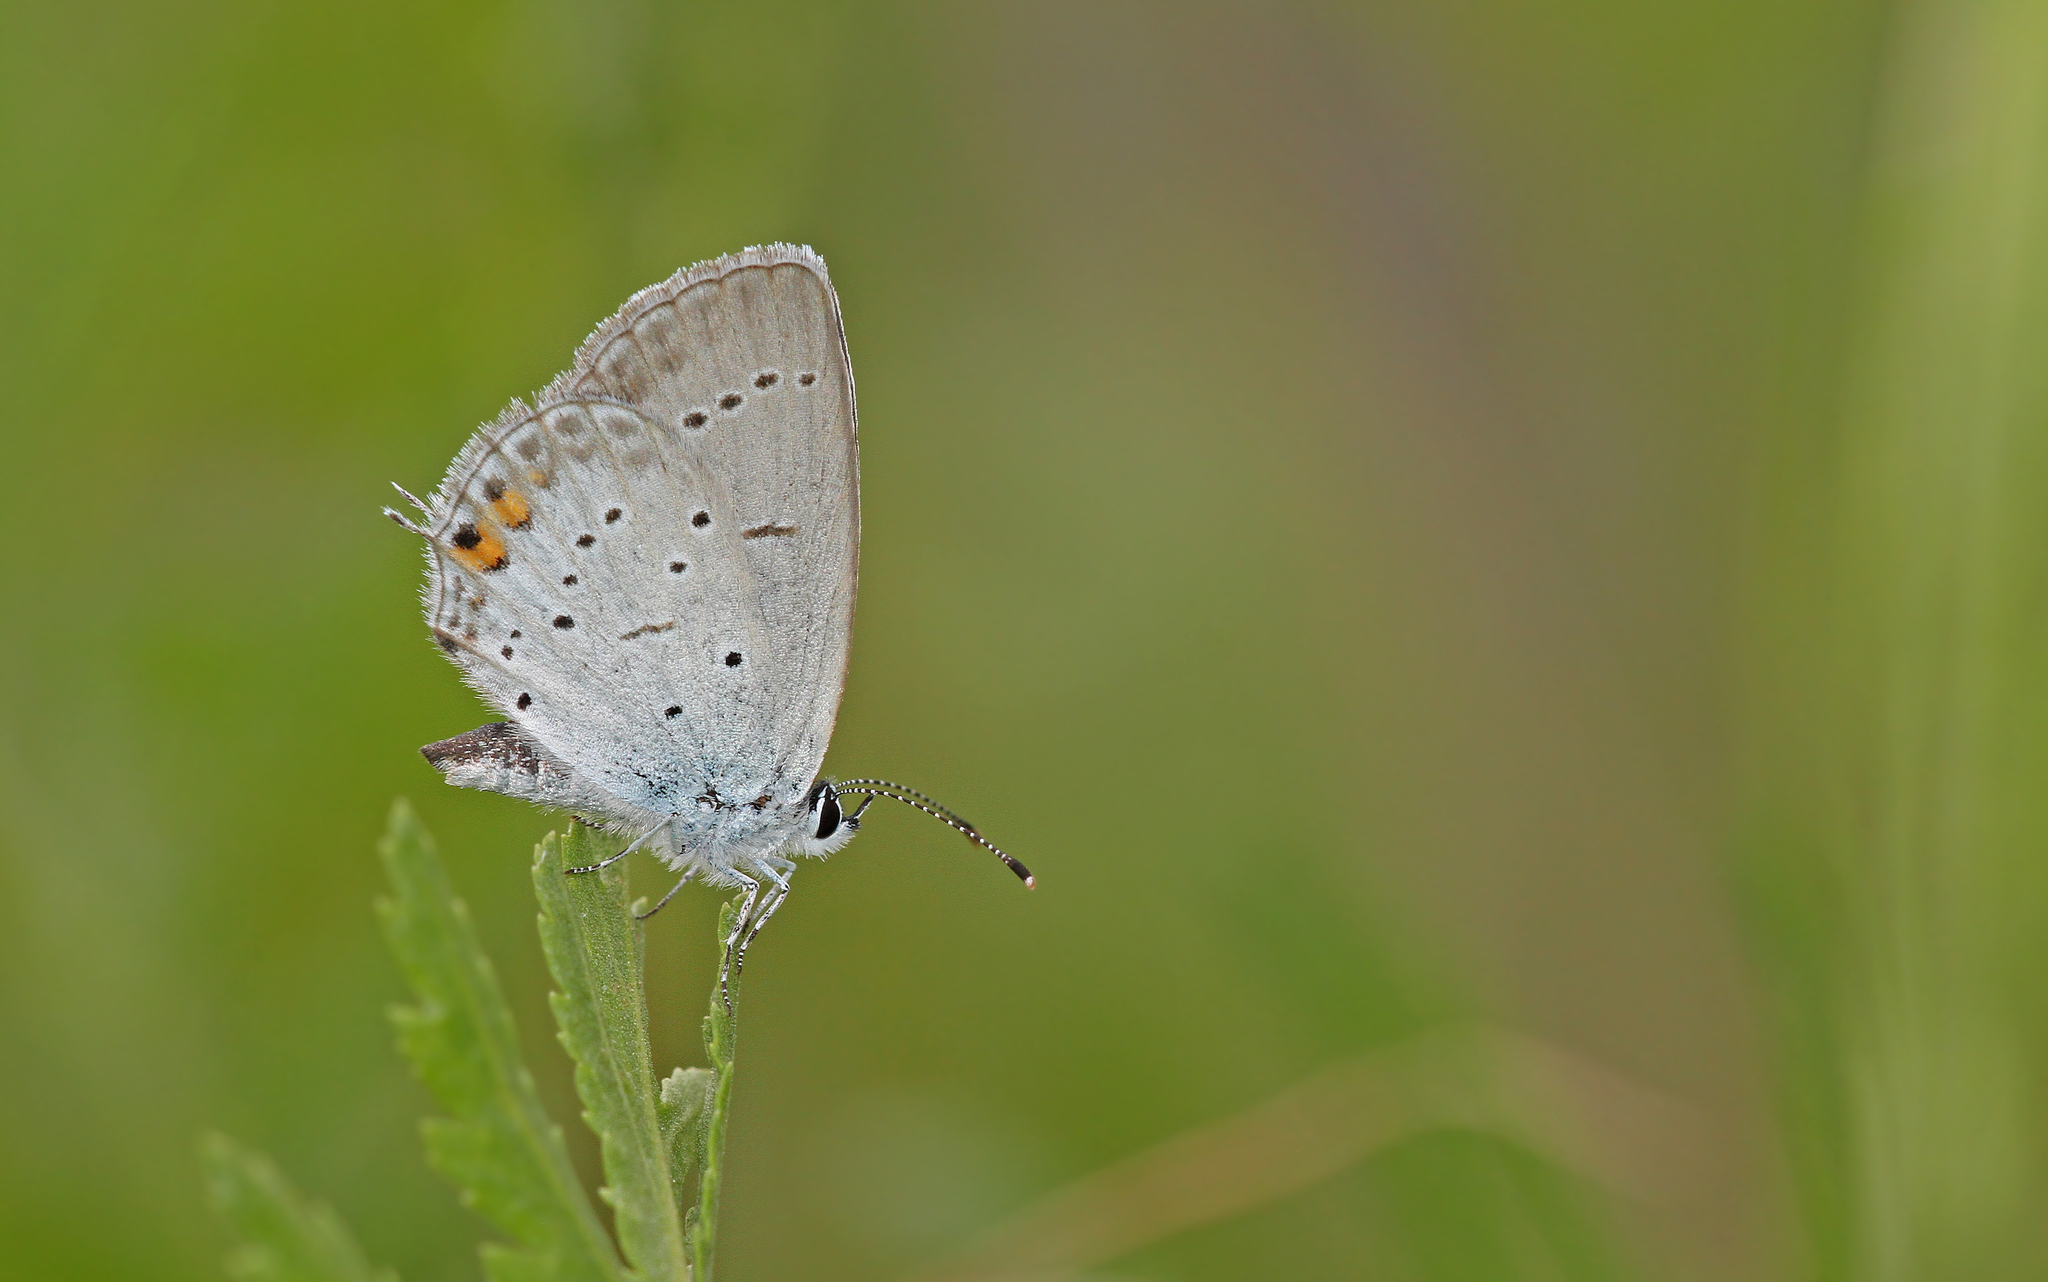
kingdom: Animalia
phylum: Arthropoda
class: Insecta
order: Lepidoptera
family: Lycaenidae
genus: Elkalyce
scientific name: Elkalyce argiades
